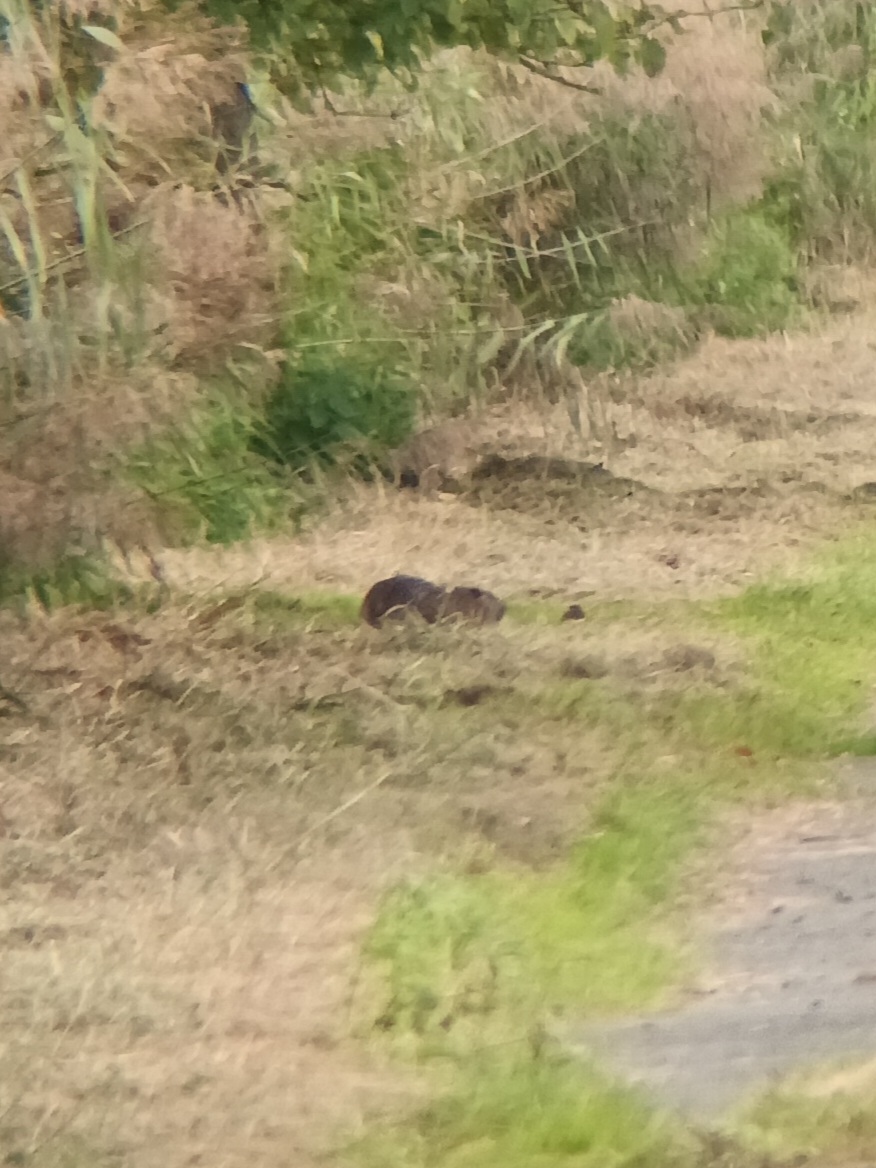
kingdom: Animalia
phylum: Chordata
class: Mammalia
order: Rodentia
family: Myocastoridae
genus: Myocastor
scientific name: Myocastor coypus
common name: Coypu
